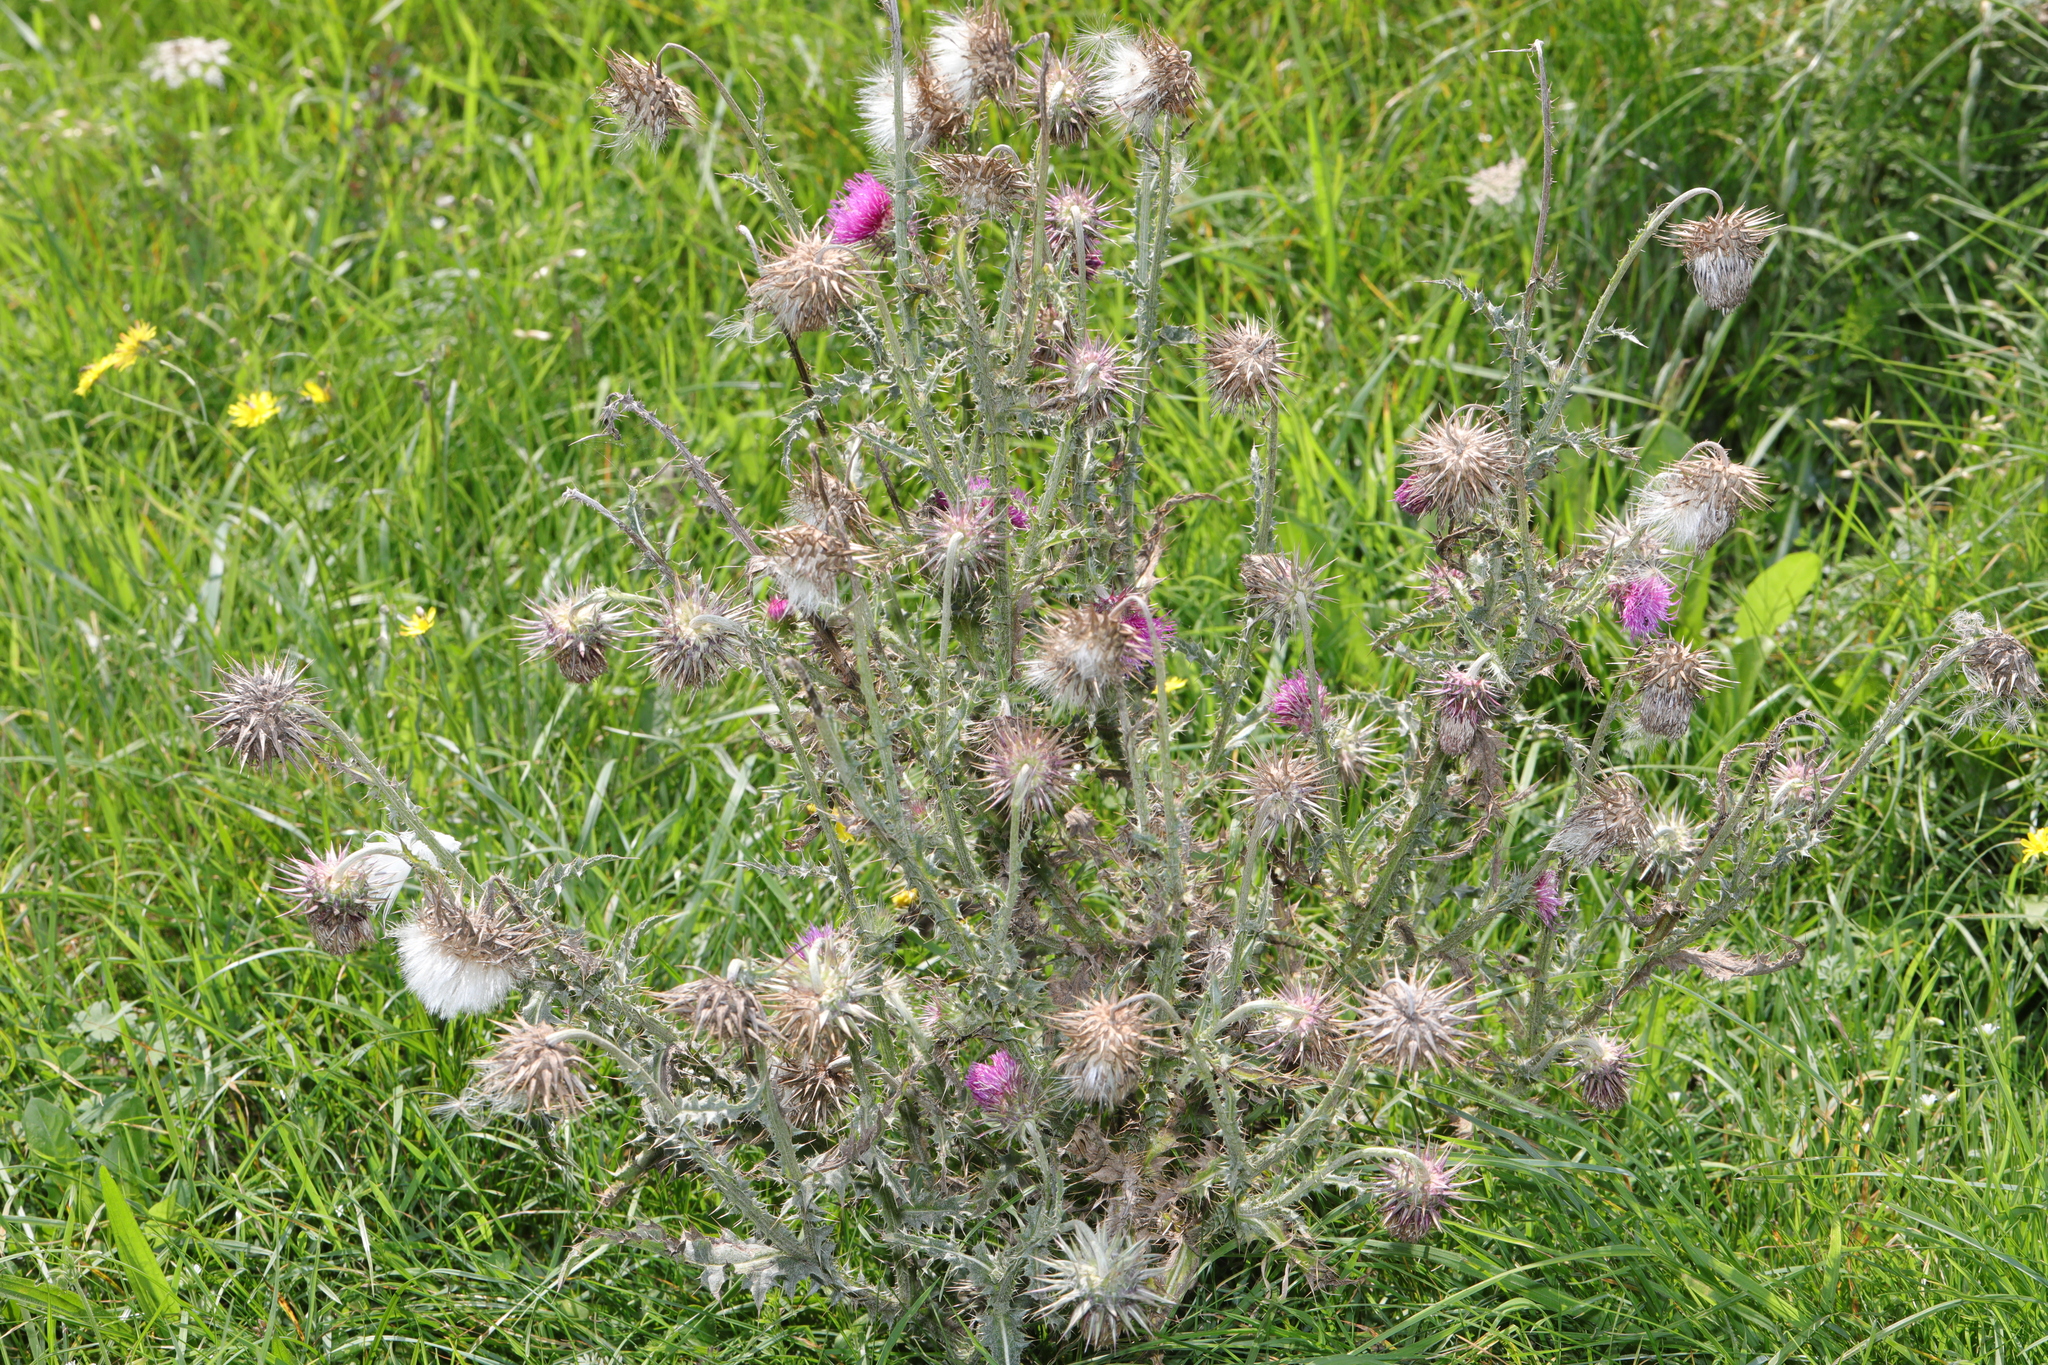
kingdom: Plantae
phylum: Tracheophyta
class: Magnoliopsida
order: Asterales
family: Asteraceae
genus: Carduus
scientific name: Carduus nutans
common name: Musk thistle
